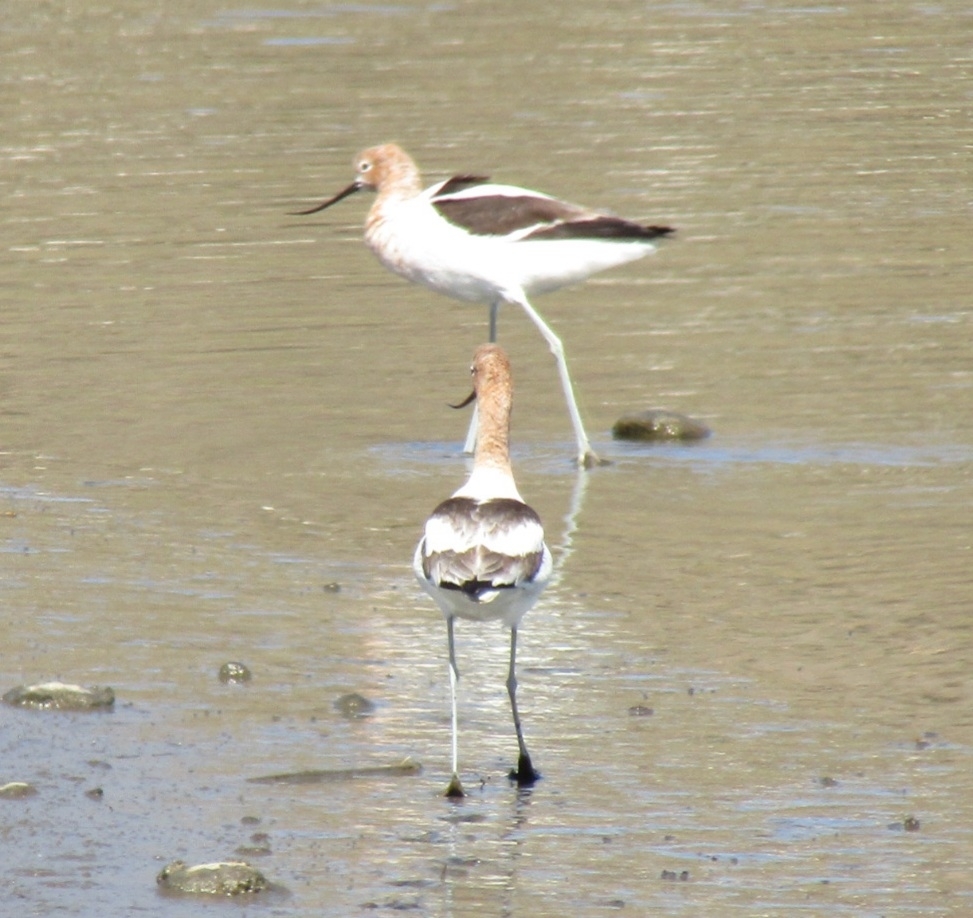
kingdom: Animalia
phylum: Chordata
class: Aves
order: Charadriiformes
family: Recurvirostridae
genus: Recurvirostra
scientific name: Recurvirostra americana
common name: American avocet
